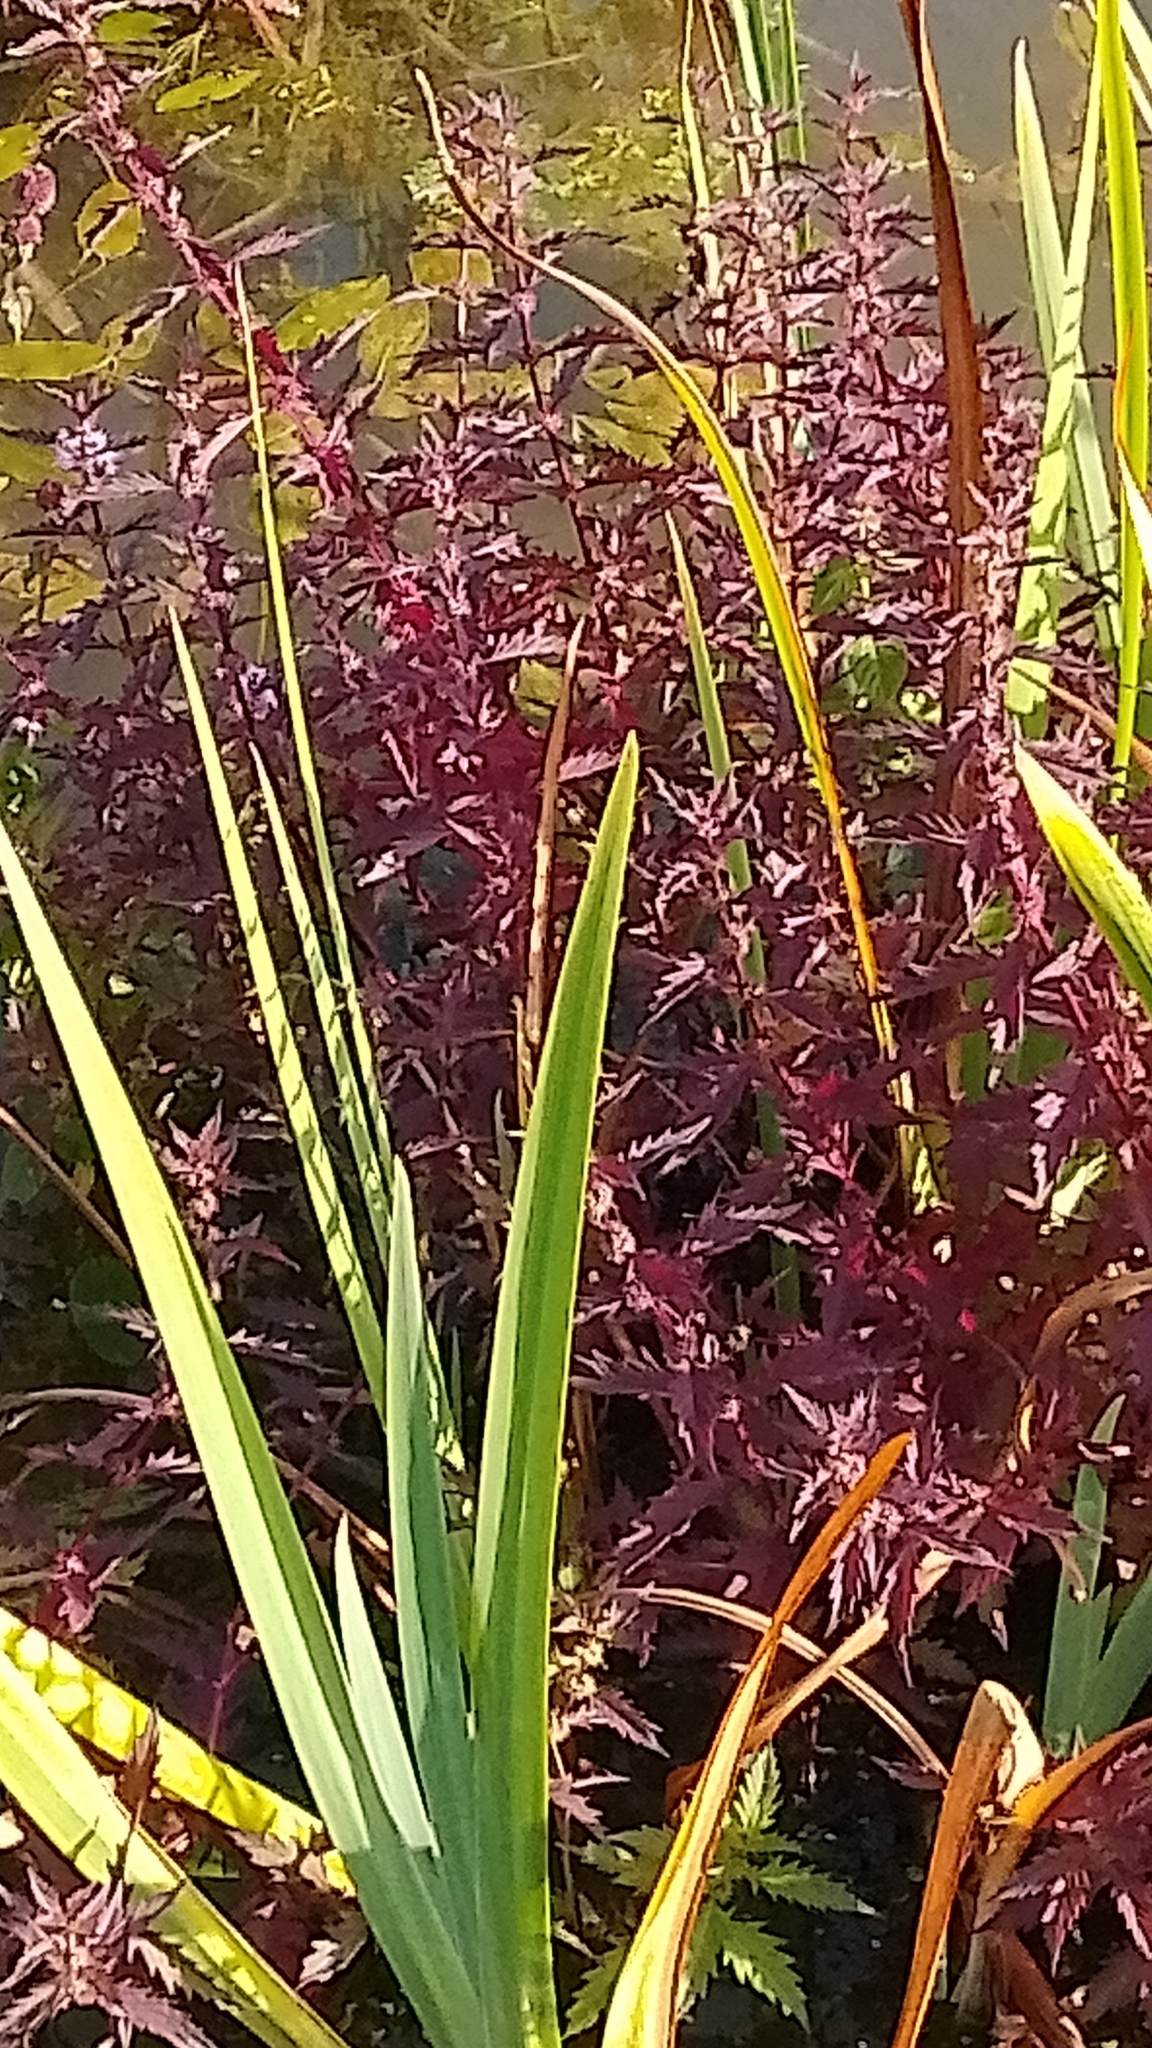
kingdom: Plantae
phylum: Tracheophyta
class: Magnoliopsida
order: Lamiales
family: Lamiaceae
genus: Lycopus
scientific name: Lycopus europaeus
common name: European bugleweed
